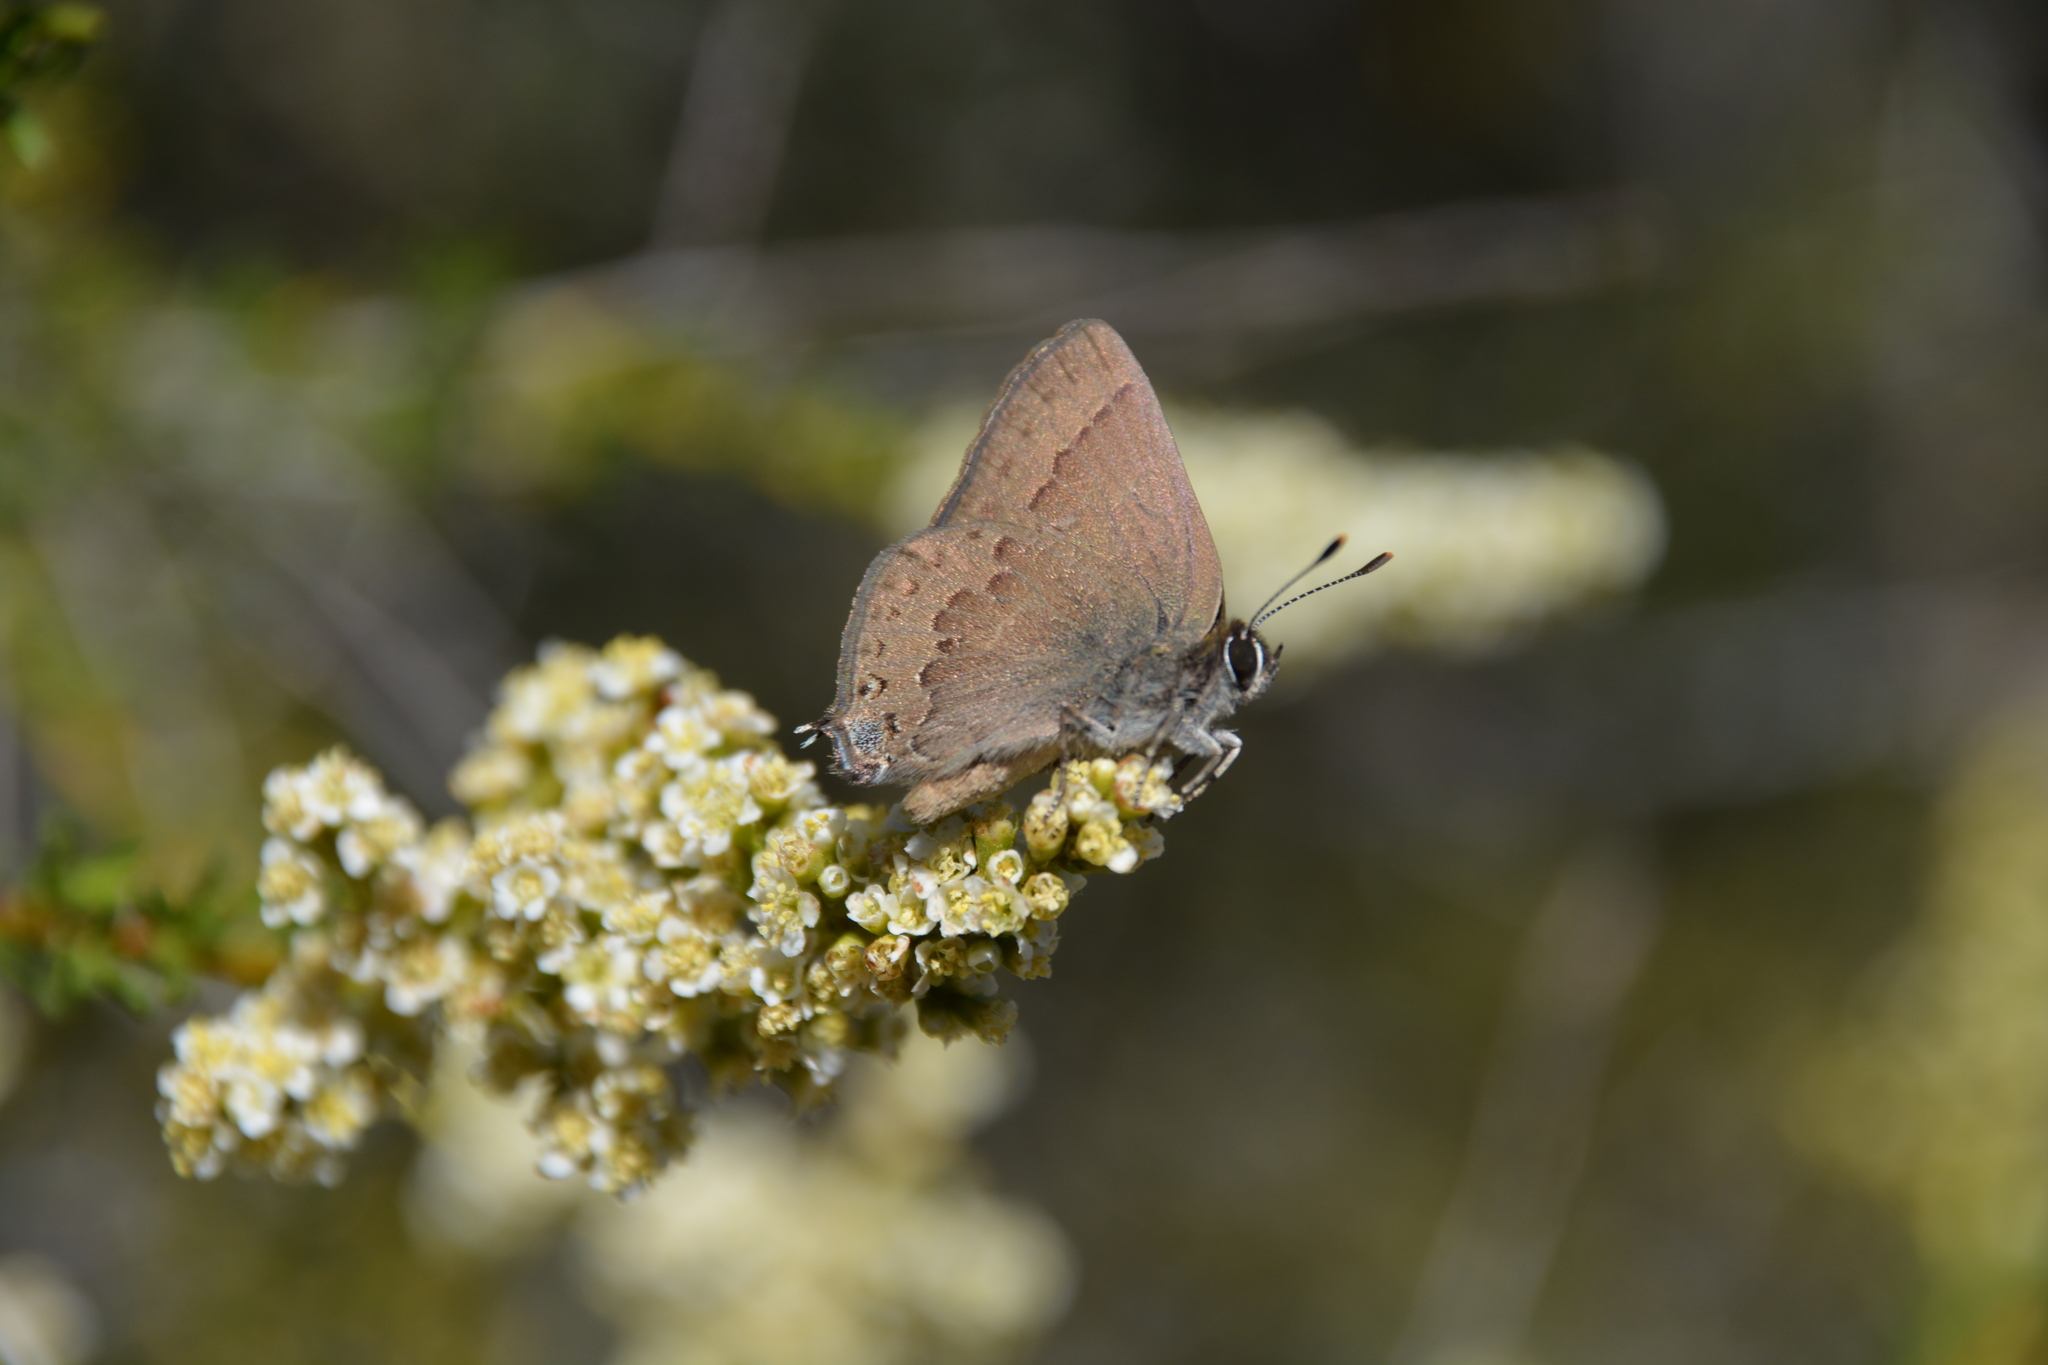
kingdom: Animalia
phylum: Arthropoda
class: Insecta
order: Lepidoptera
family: Lycaenidae
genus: Strymon
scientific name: Strymon saepium
